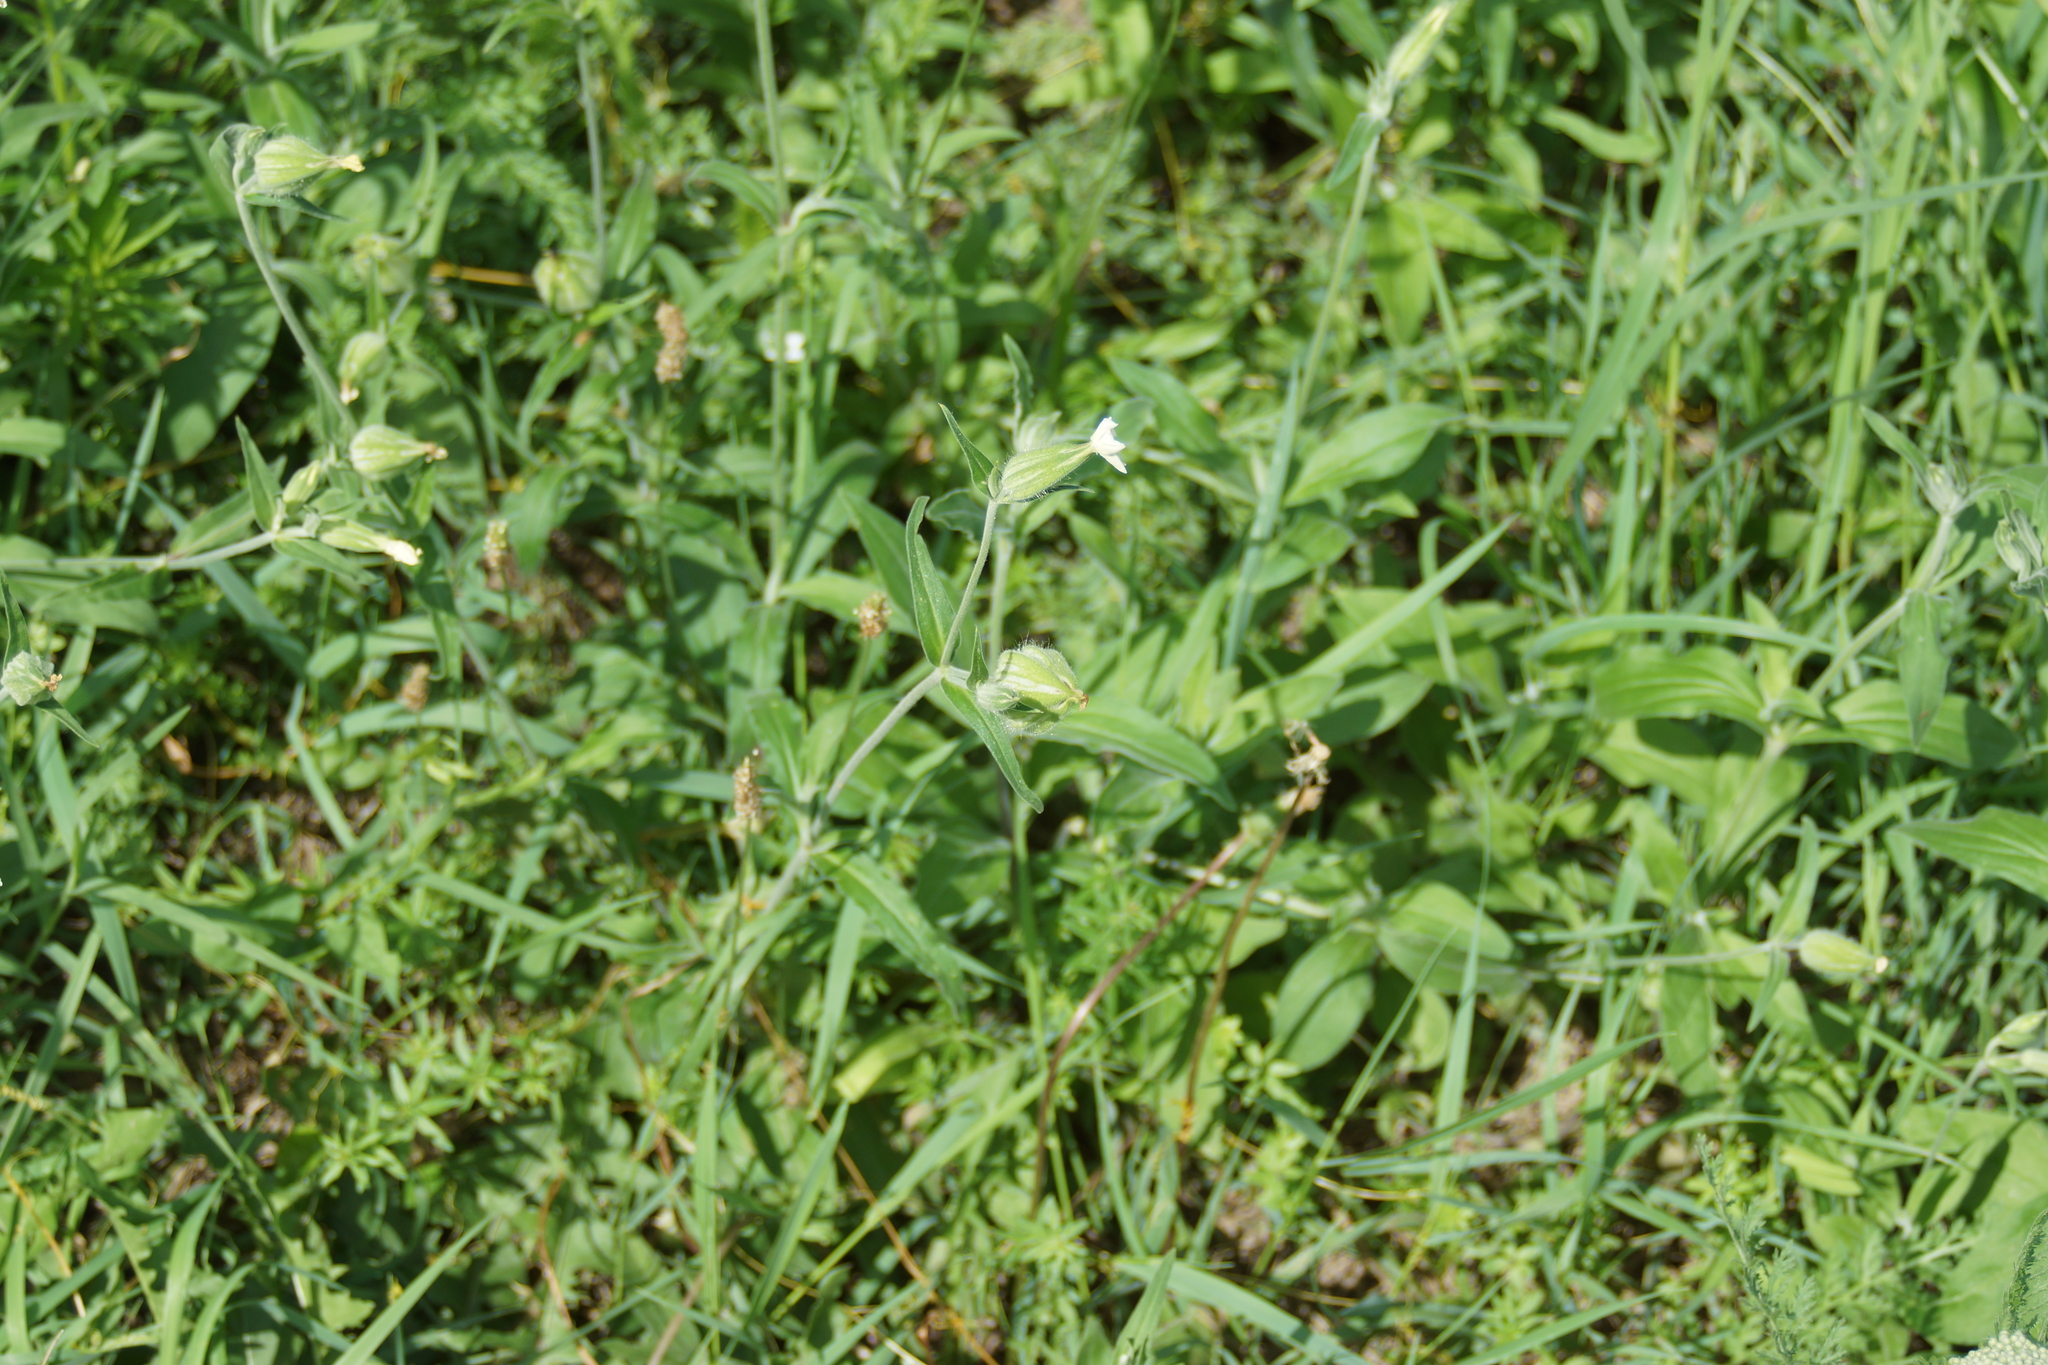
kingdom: Plantae
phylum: Tracheophyta
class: Magnoliopsida
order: Caryophyllales
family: Caryophyllaceae
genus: Silene
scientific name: Silene latifolia
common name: White campion
